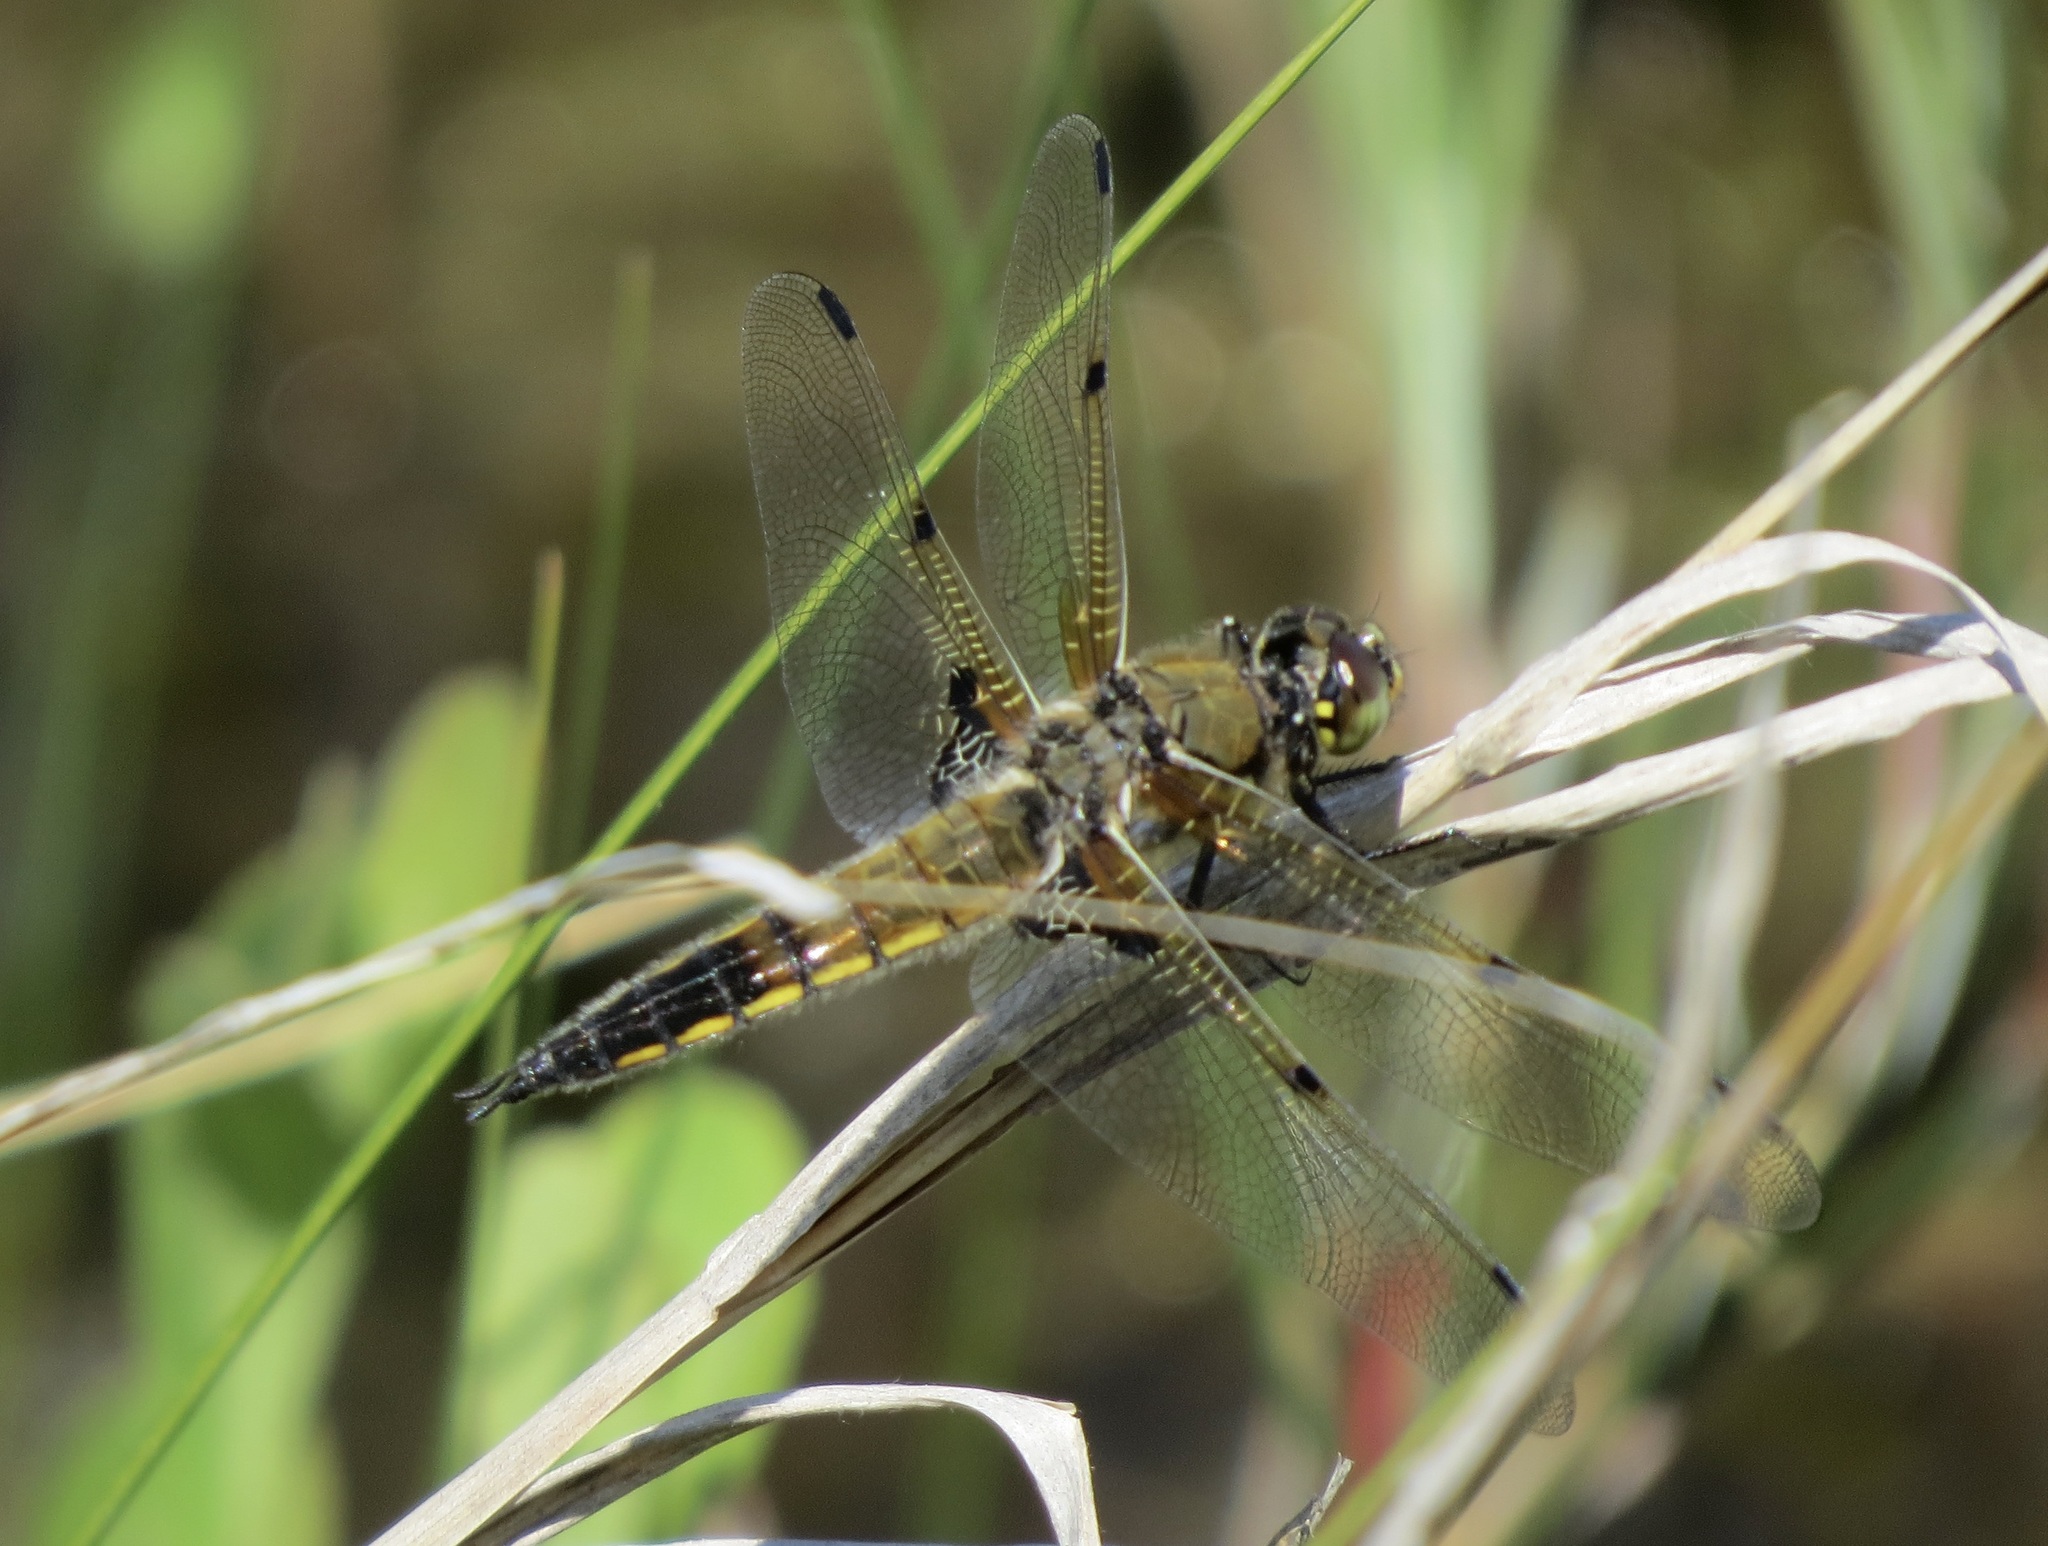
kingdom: Animalia
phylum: Arthropoda
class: Insecta
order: Odonata
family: Libellulidae
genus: Libellula
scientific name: Libellula quadrimaculata
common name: Four-spotted chaser
